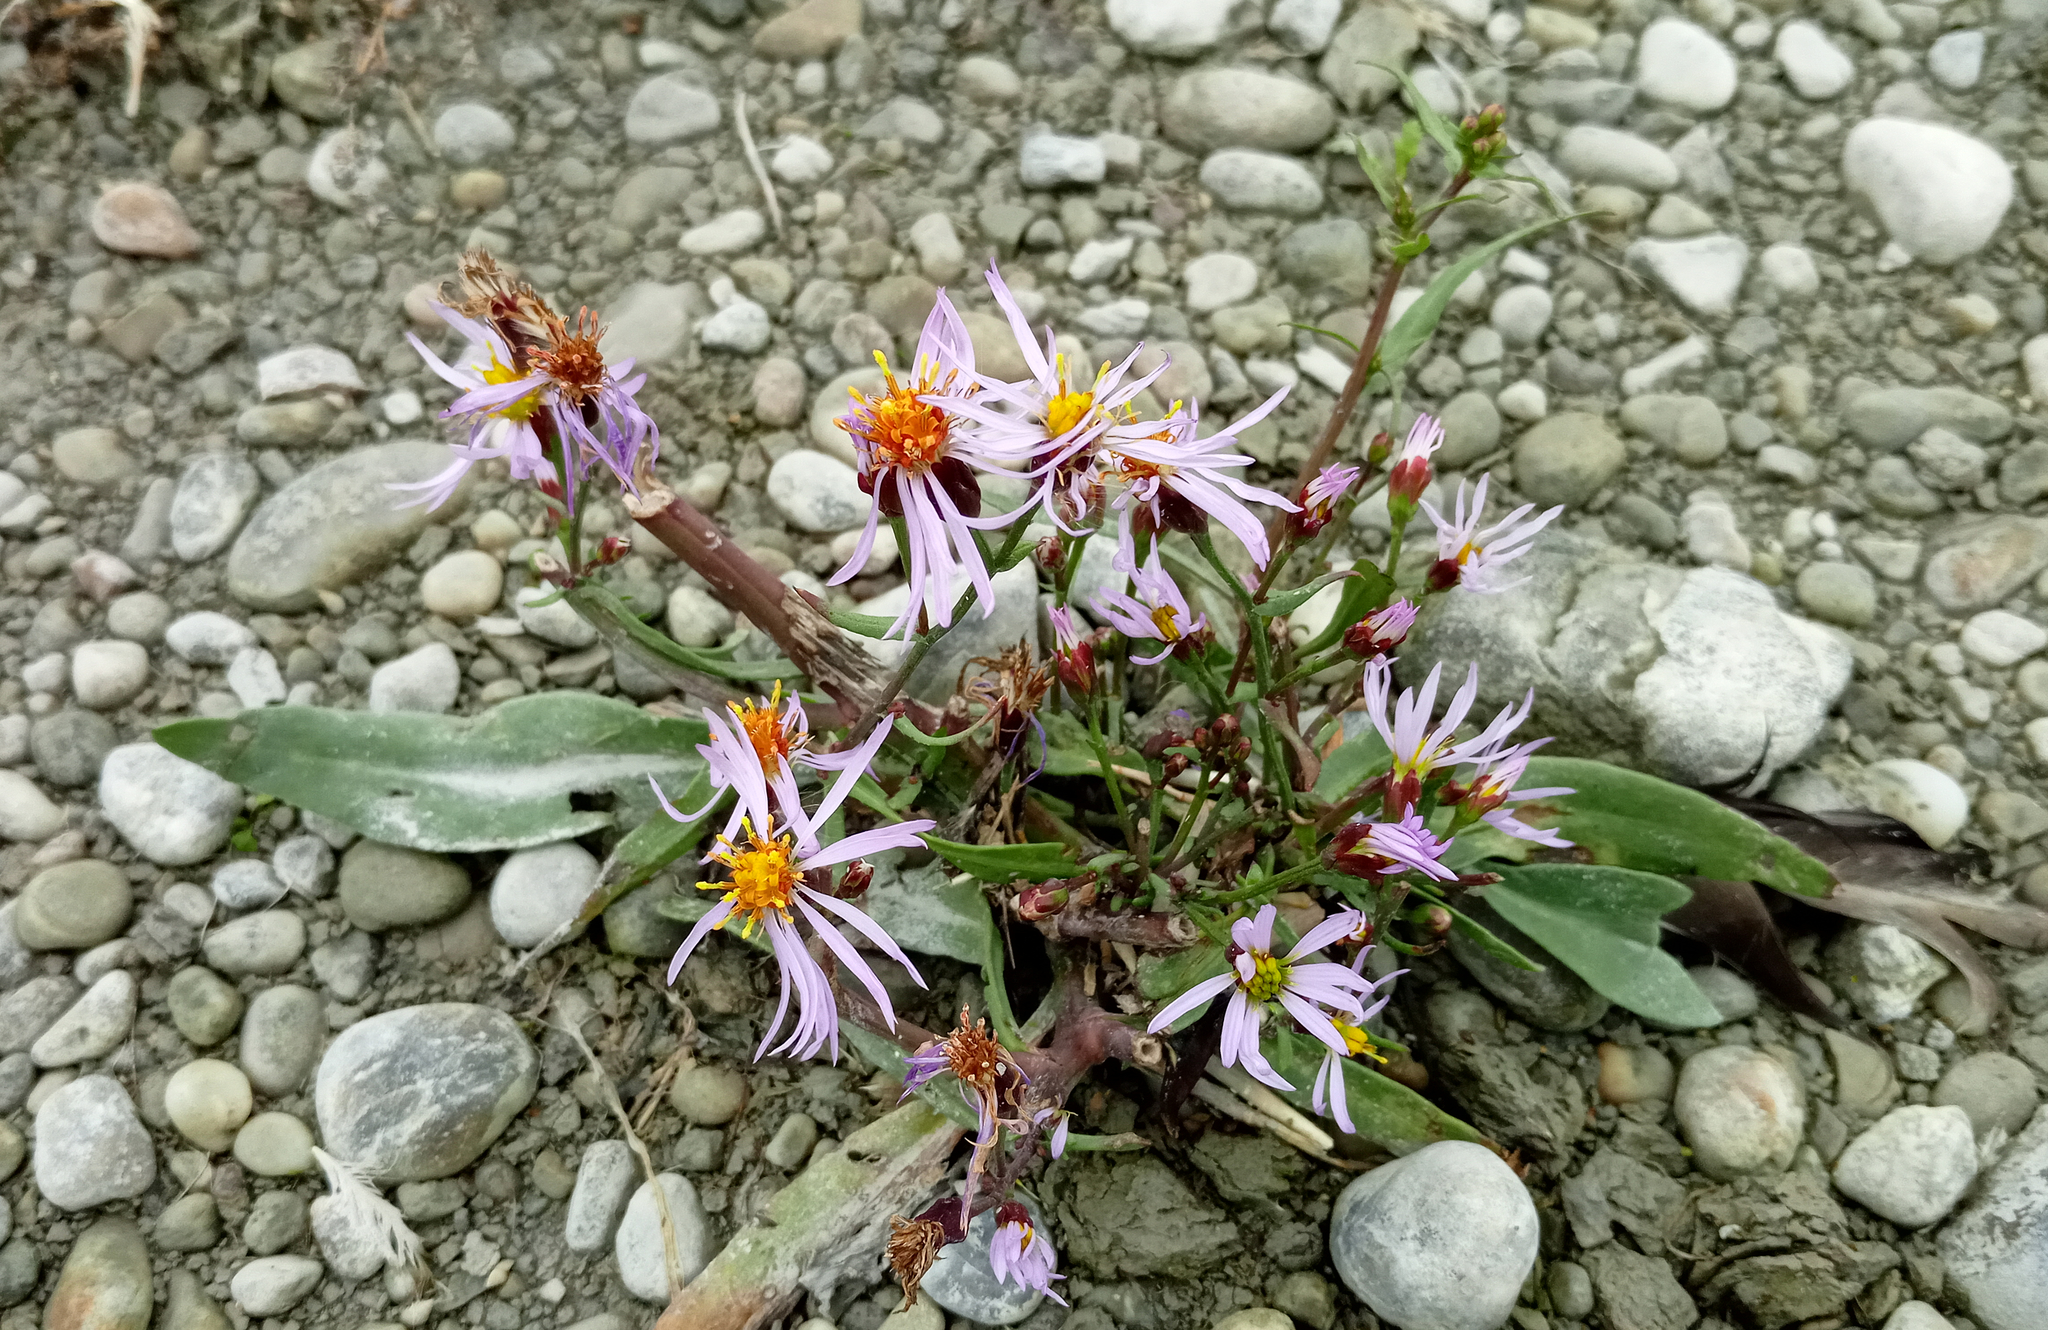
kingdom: Plantae
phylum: Tracheophyta
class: Magnoliopsida
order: Asterales
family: Asteraceae
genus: Tripolium
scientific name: Tripolium pannonicum
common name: Sea aster
